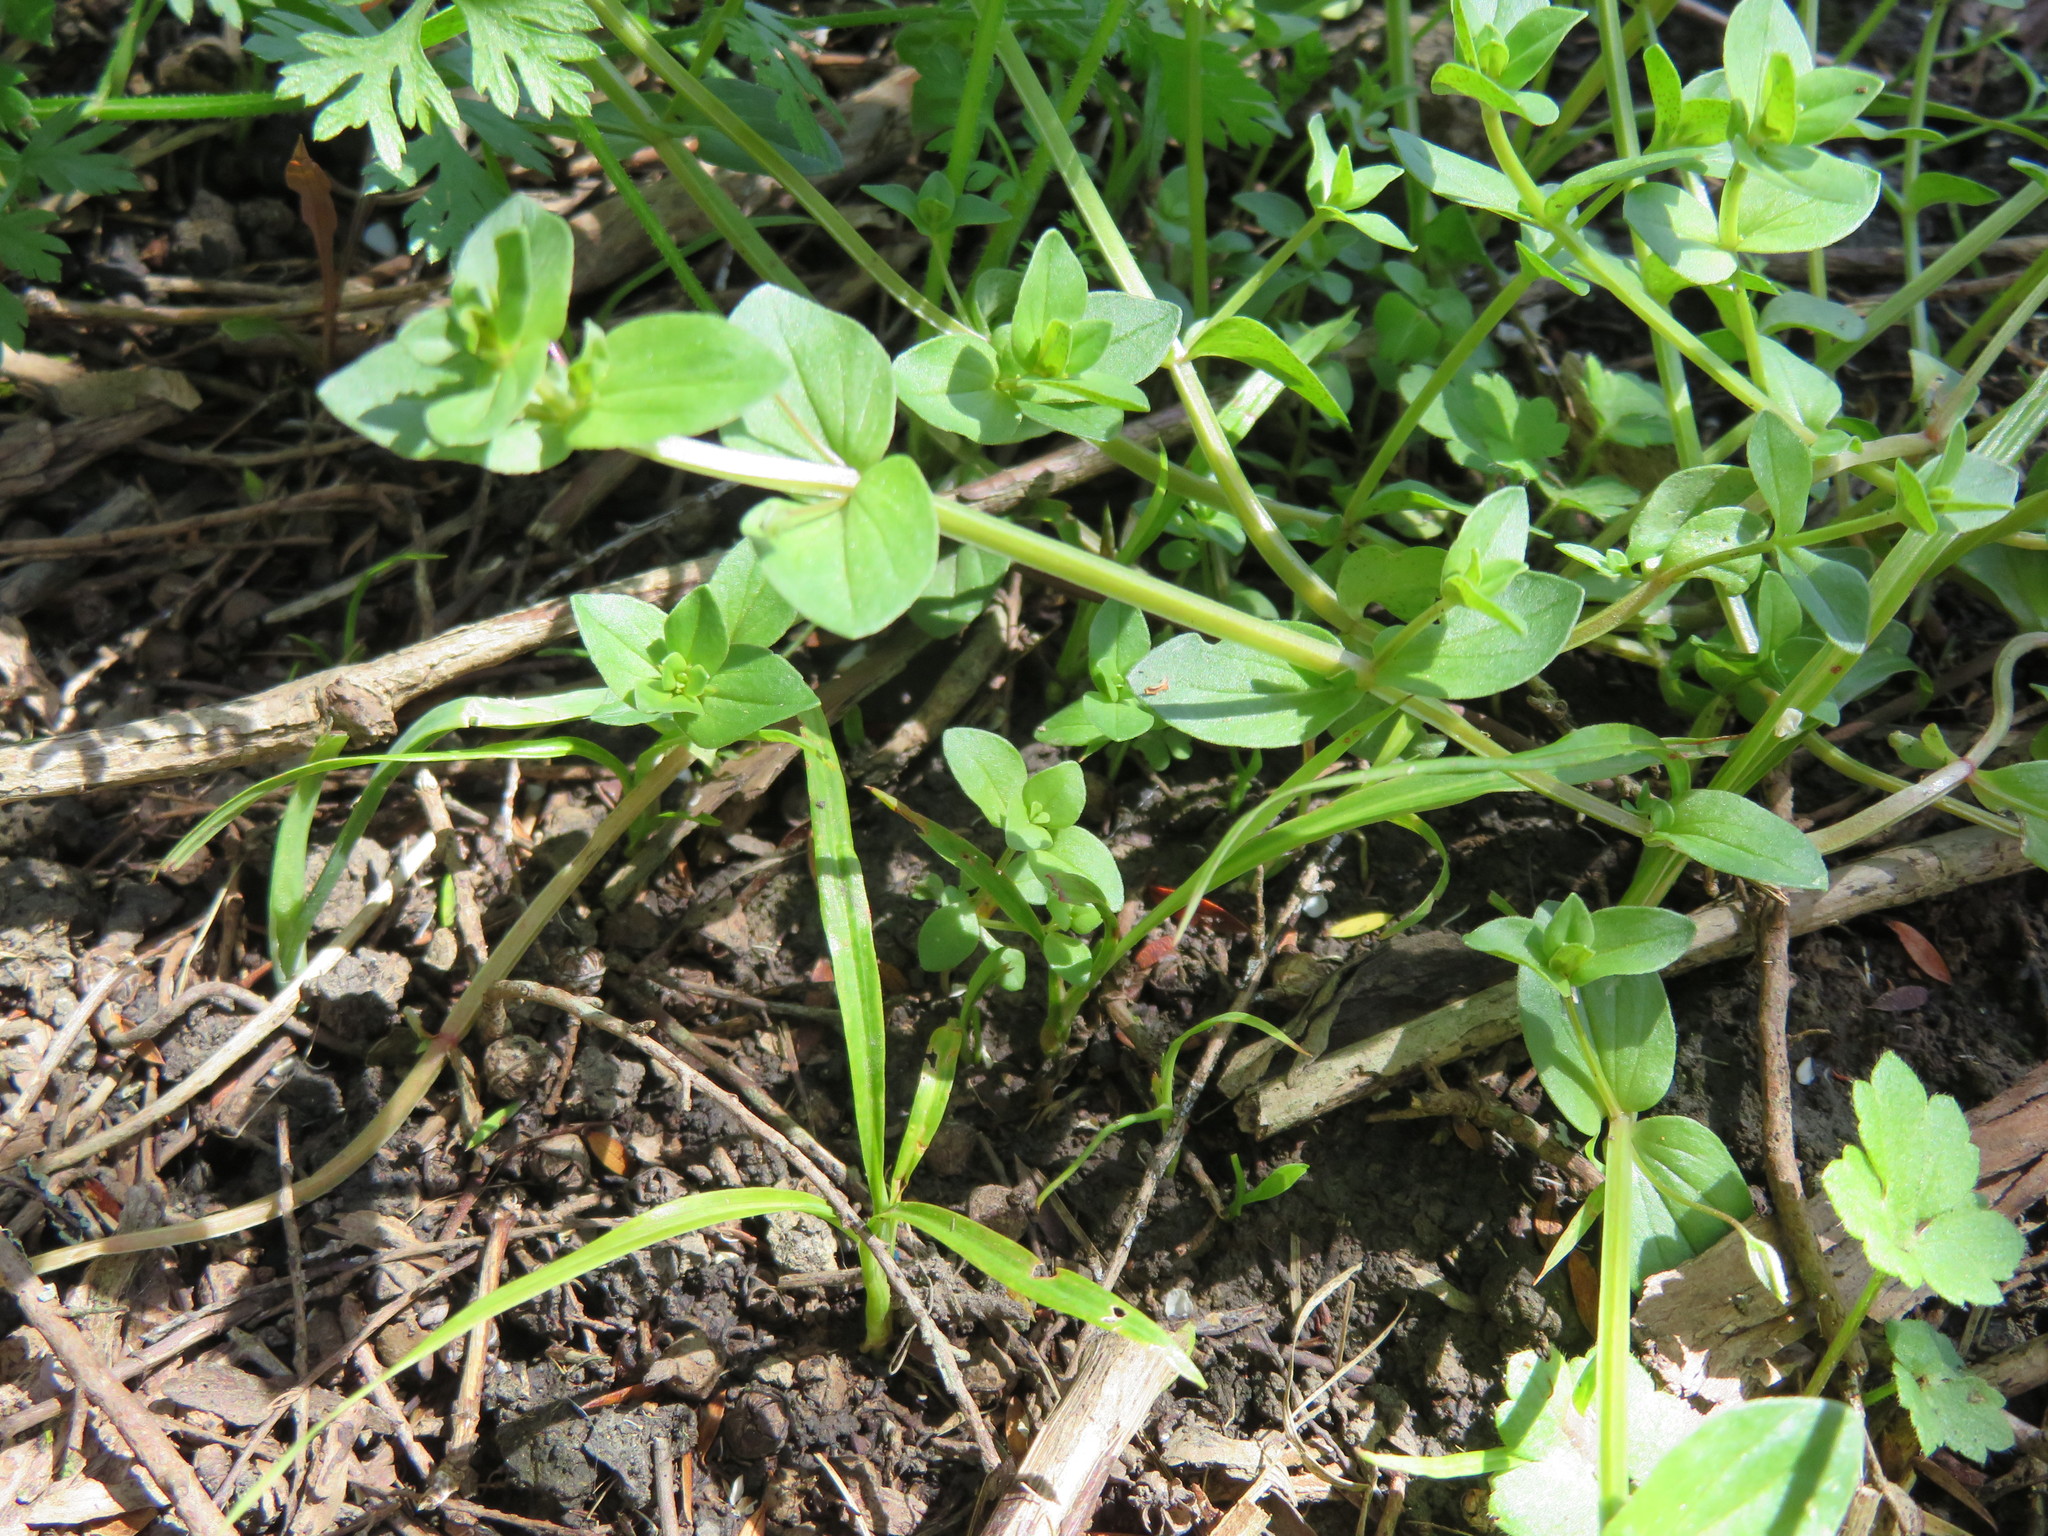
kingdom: Plantae
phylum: Tracheophyta
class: Liliopsida
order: Asparagales
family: Asparagaceae
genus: Cordyline
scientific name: Cordyline australis
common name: Cabbage-palm
